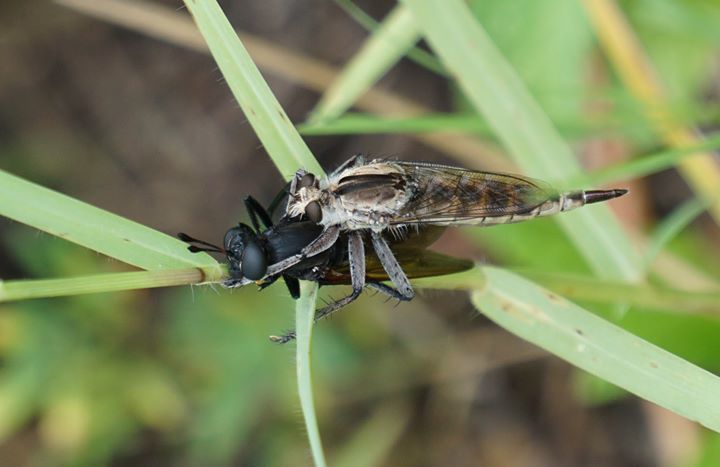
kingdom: Animalia
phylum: Arthropoda
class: Insecta
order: Diptera
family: Asilidae
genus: Triorla
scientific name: Triorla interrupta
